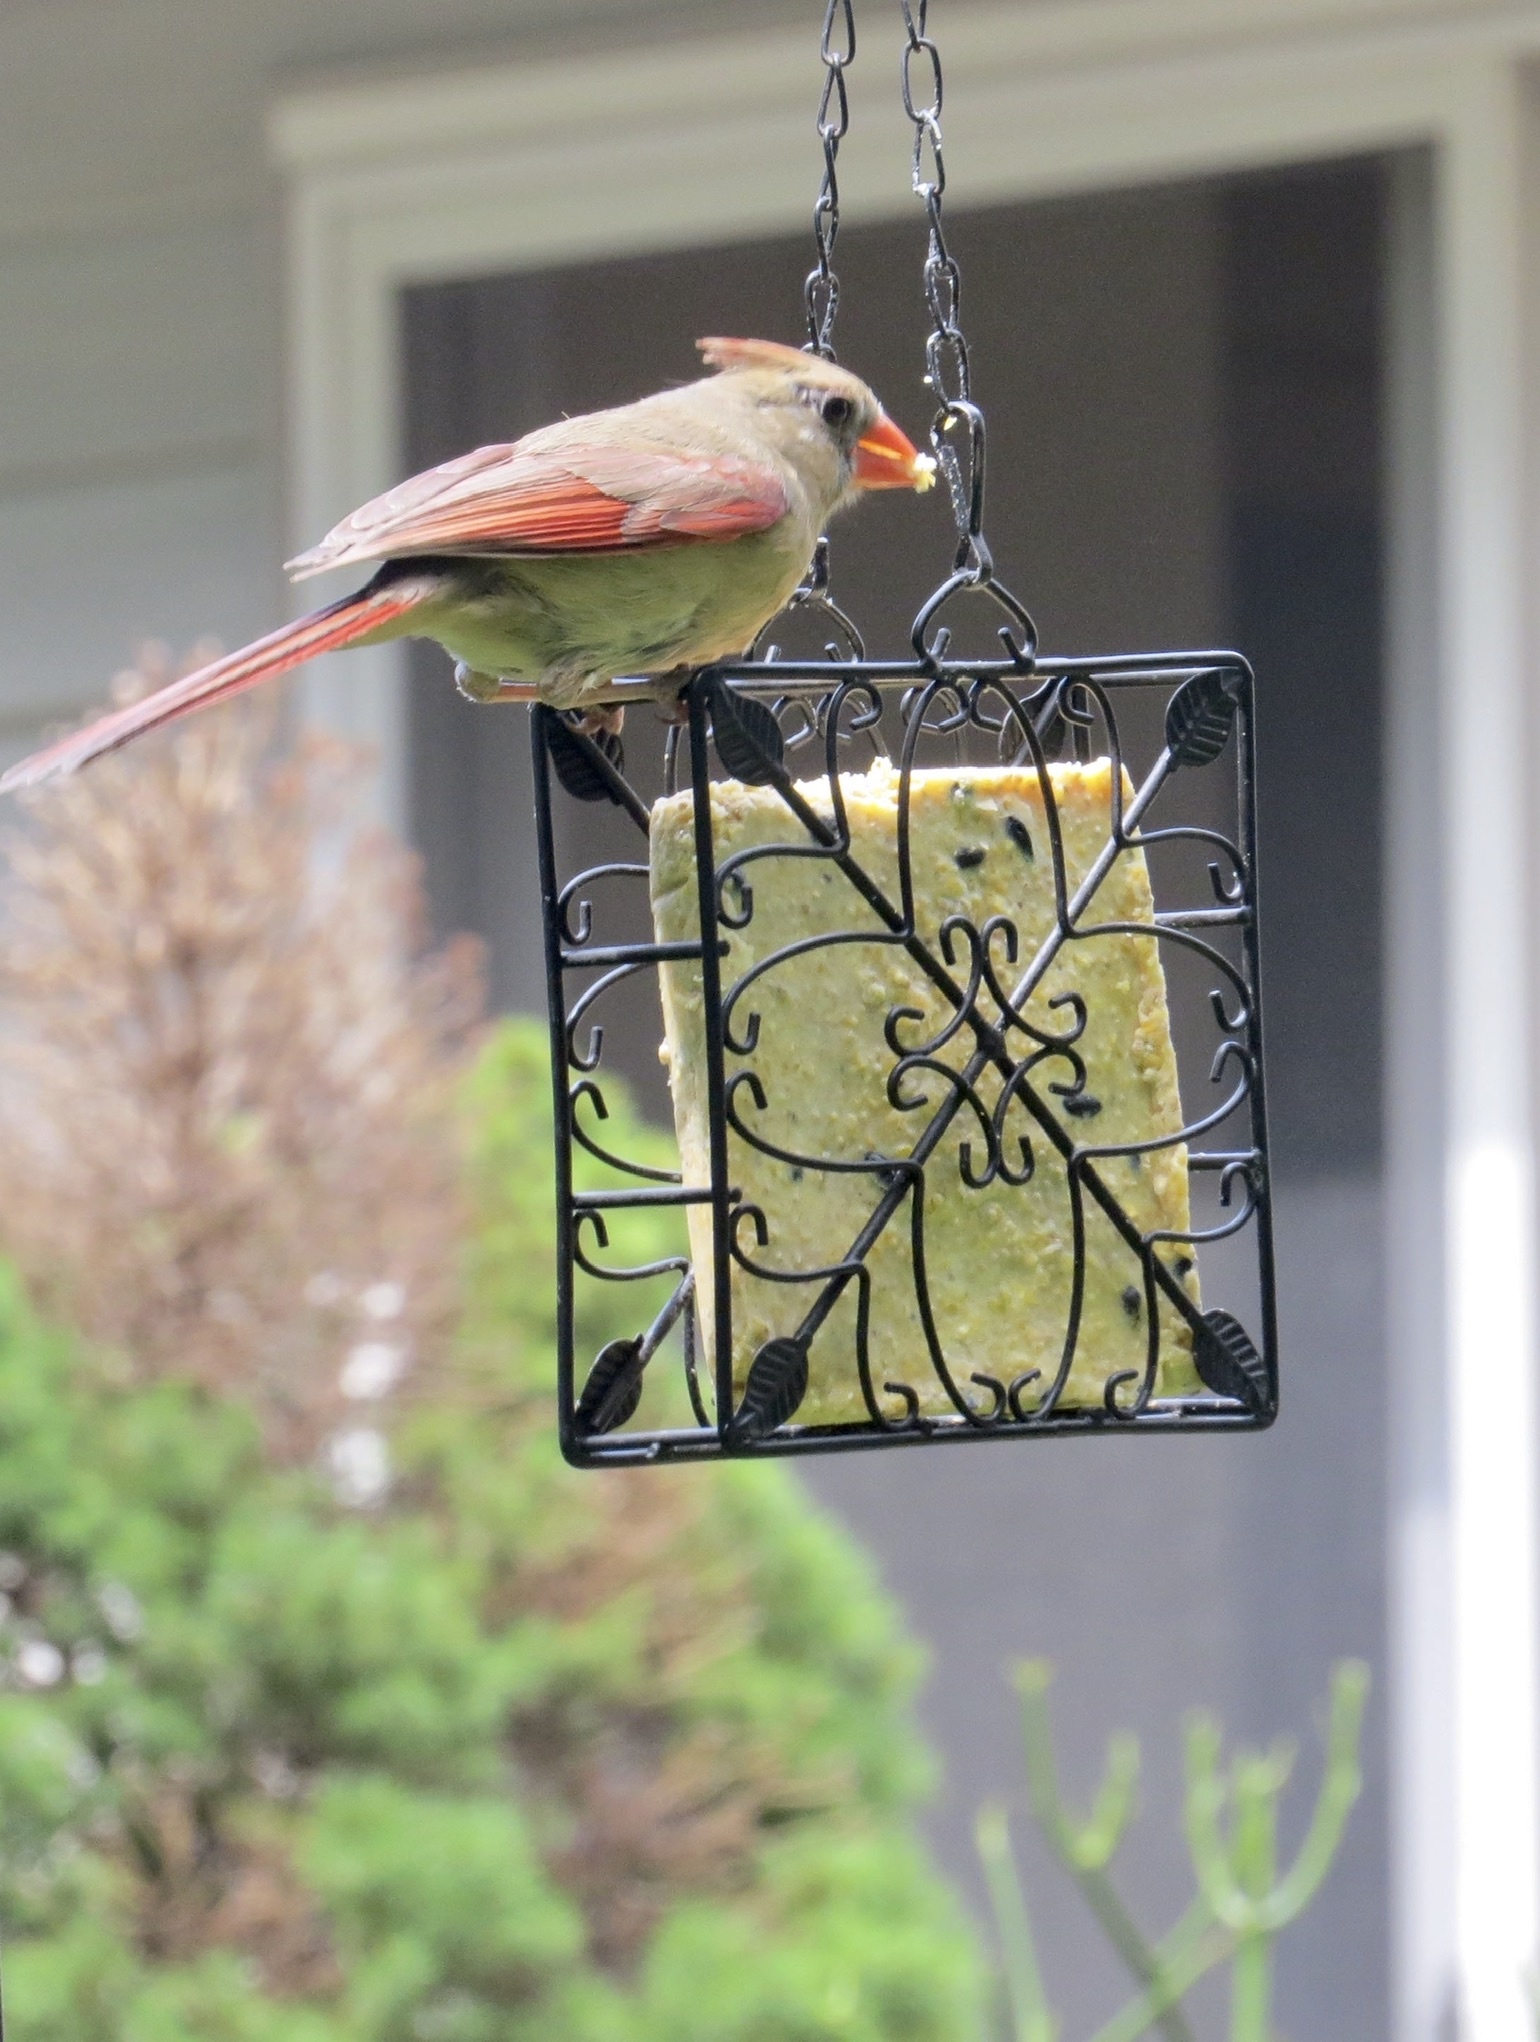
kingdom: Animalia
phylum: Chordata
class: Aves
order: Passeriformes
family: Cardinalidae
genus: Cardinalis
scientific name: Cardinalis cardinalis
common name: Northern cardinal
